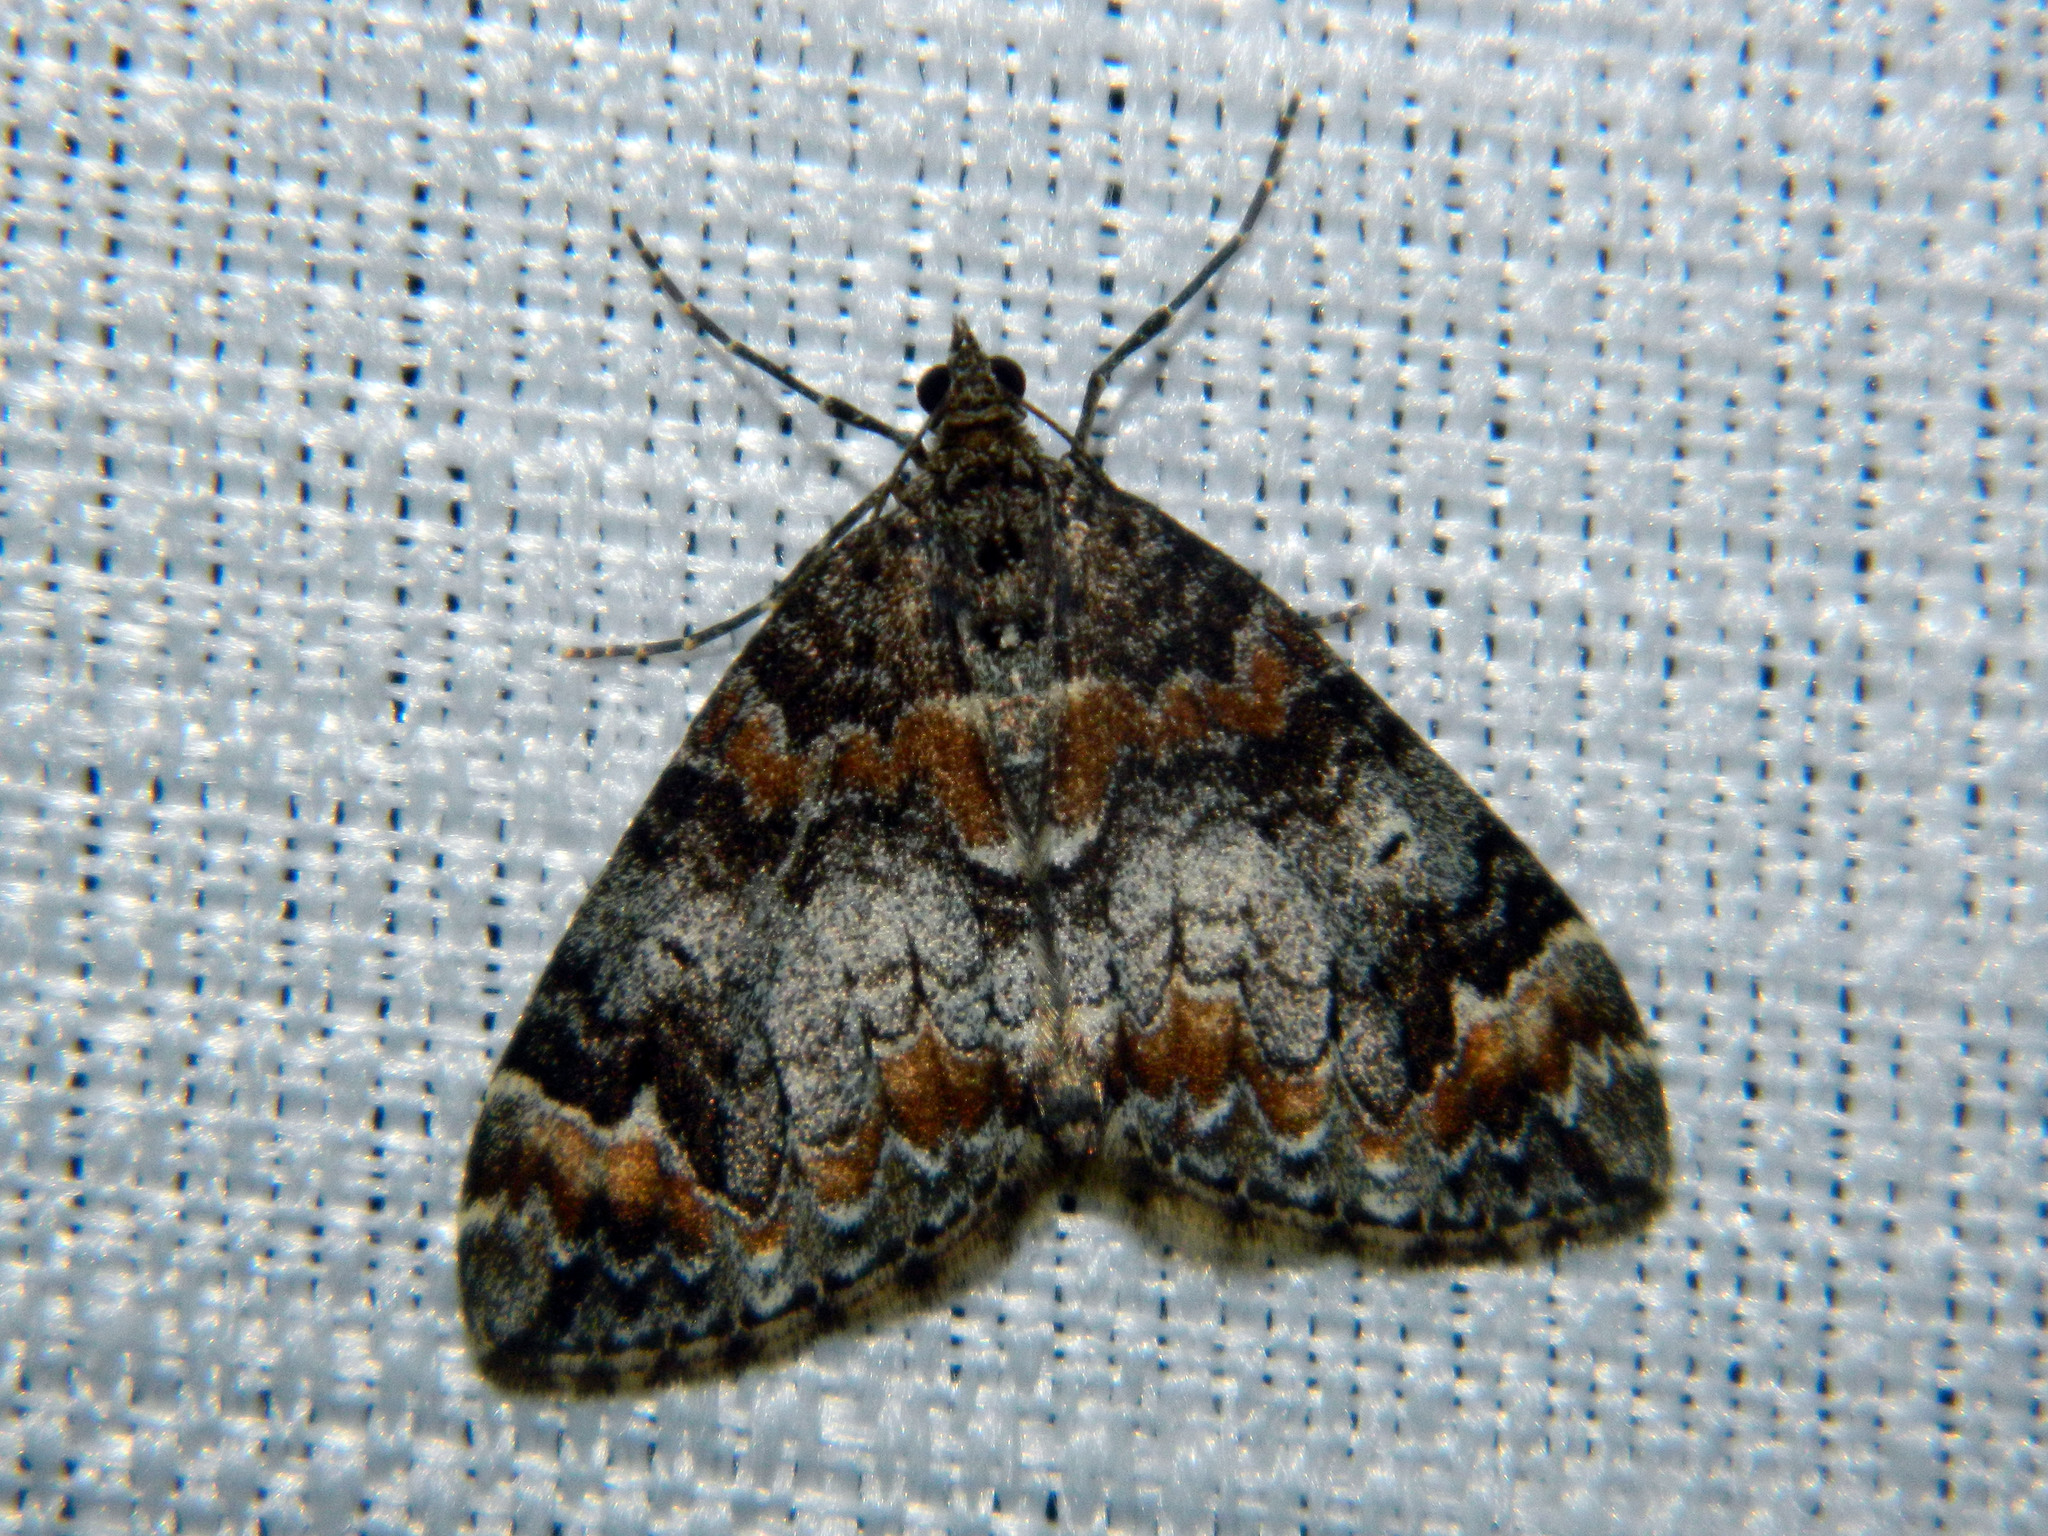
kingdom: Animalia
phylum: Arthropoda
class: Insecta
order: Lepidoptera
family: Geometridae
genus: Dysstroma
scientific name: Dysstroma truncata
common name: Common marbled carpet
